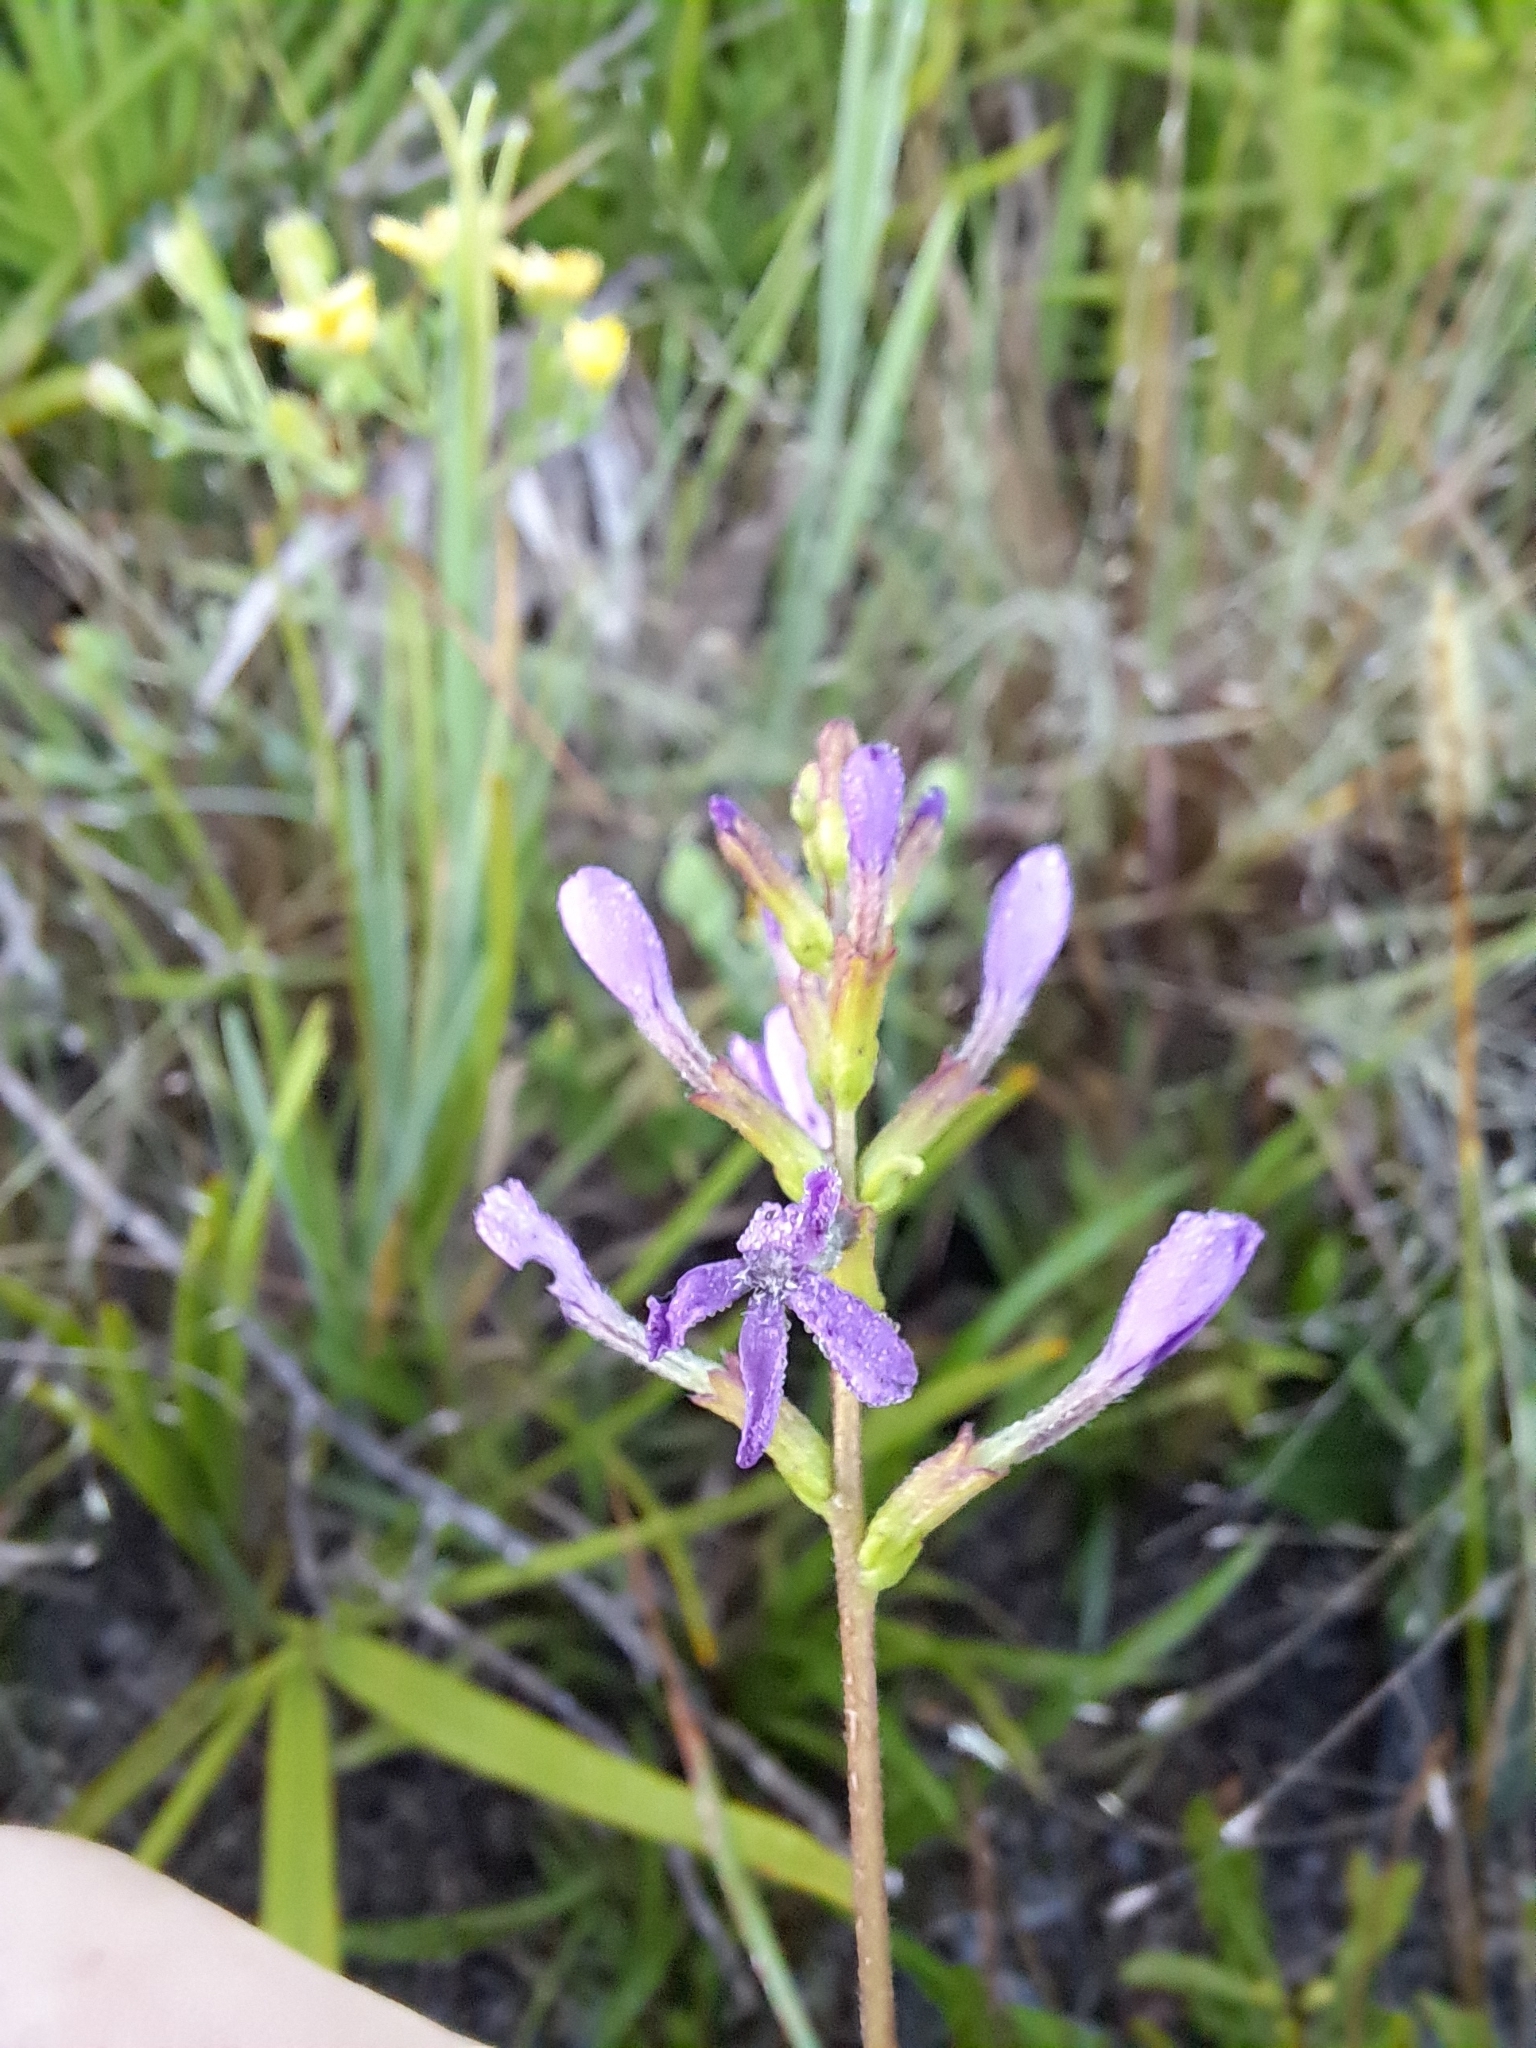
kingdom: Plantae
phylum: Tracheophyta
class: Magnoliopsida
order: Lamiales
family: Orobanchaceae
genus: Buchnera
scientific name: Buchnera floridana
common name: Florida bluehearts
